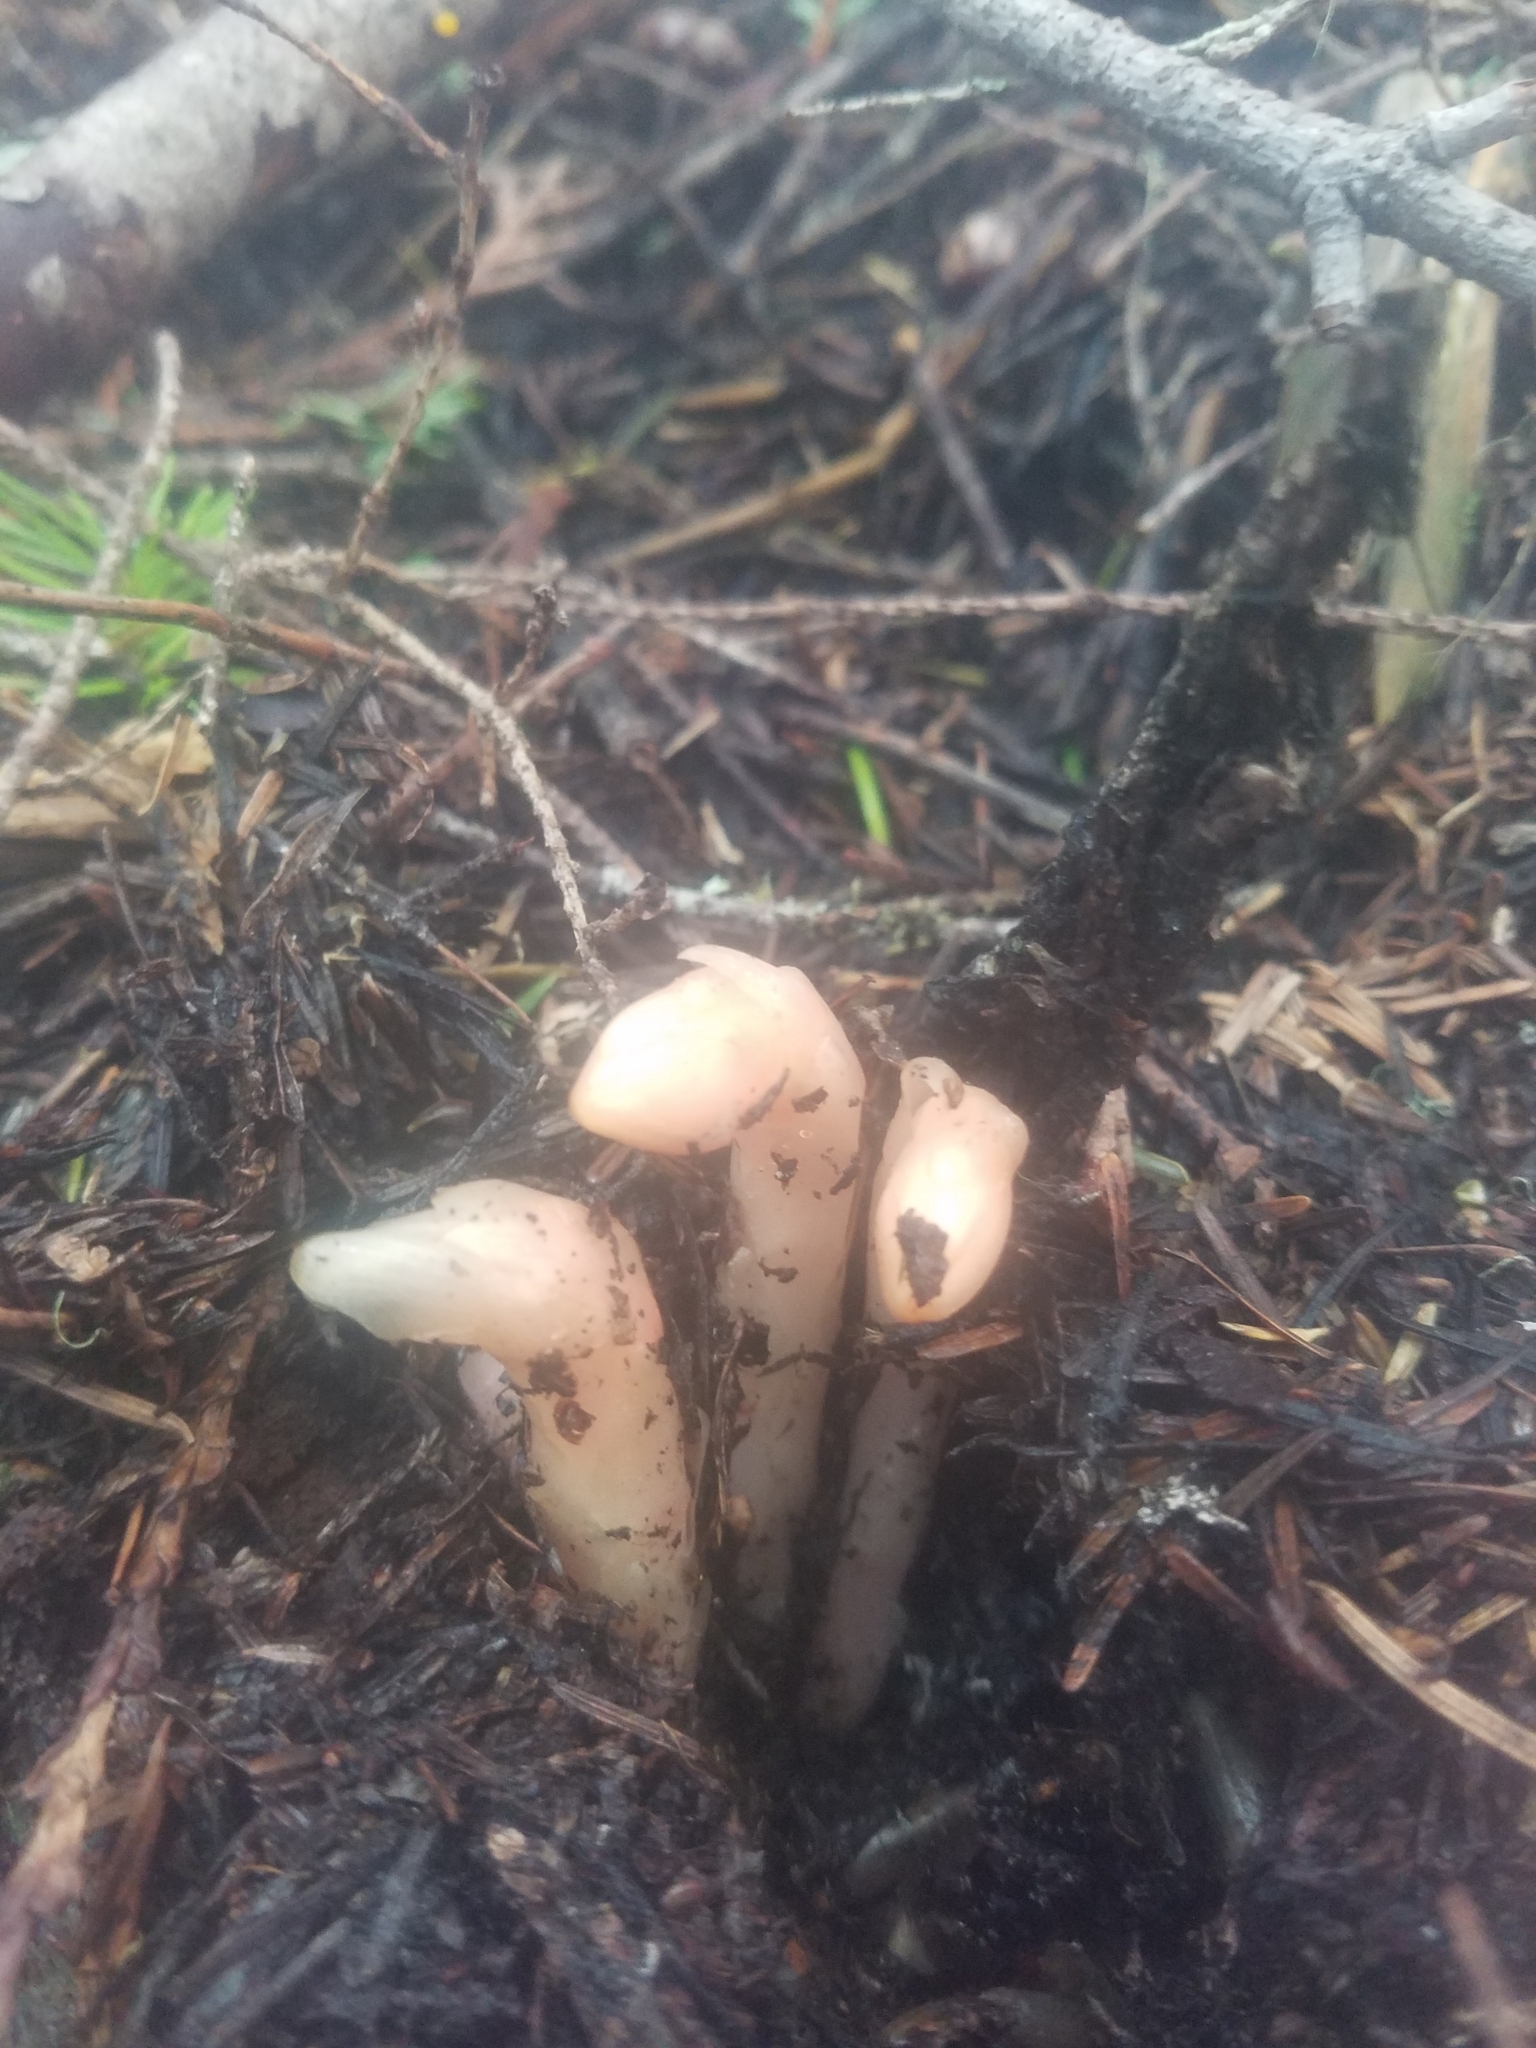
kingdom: Plantae
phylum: Tracheophyta
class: Magnoliopsida
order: Ericales
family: Ericaceae
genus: Hypopitys
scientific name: Hypopitys monotropa
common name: Yellow bird's-nest
